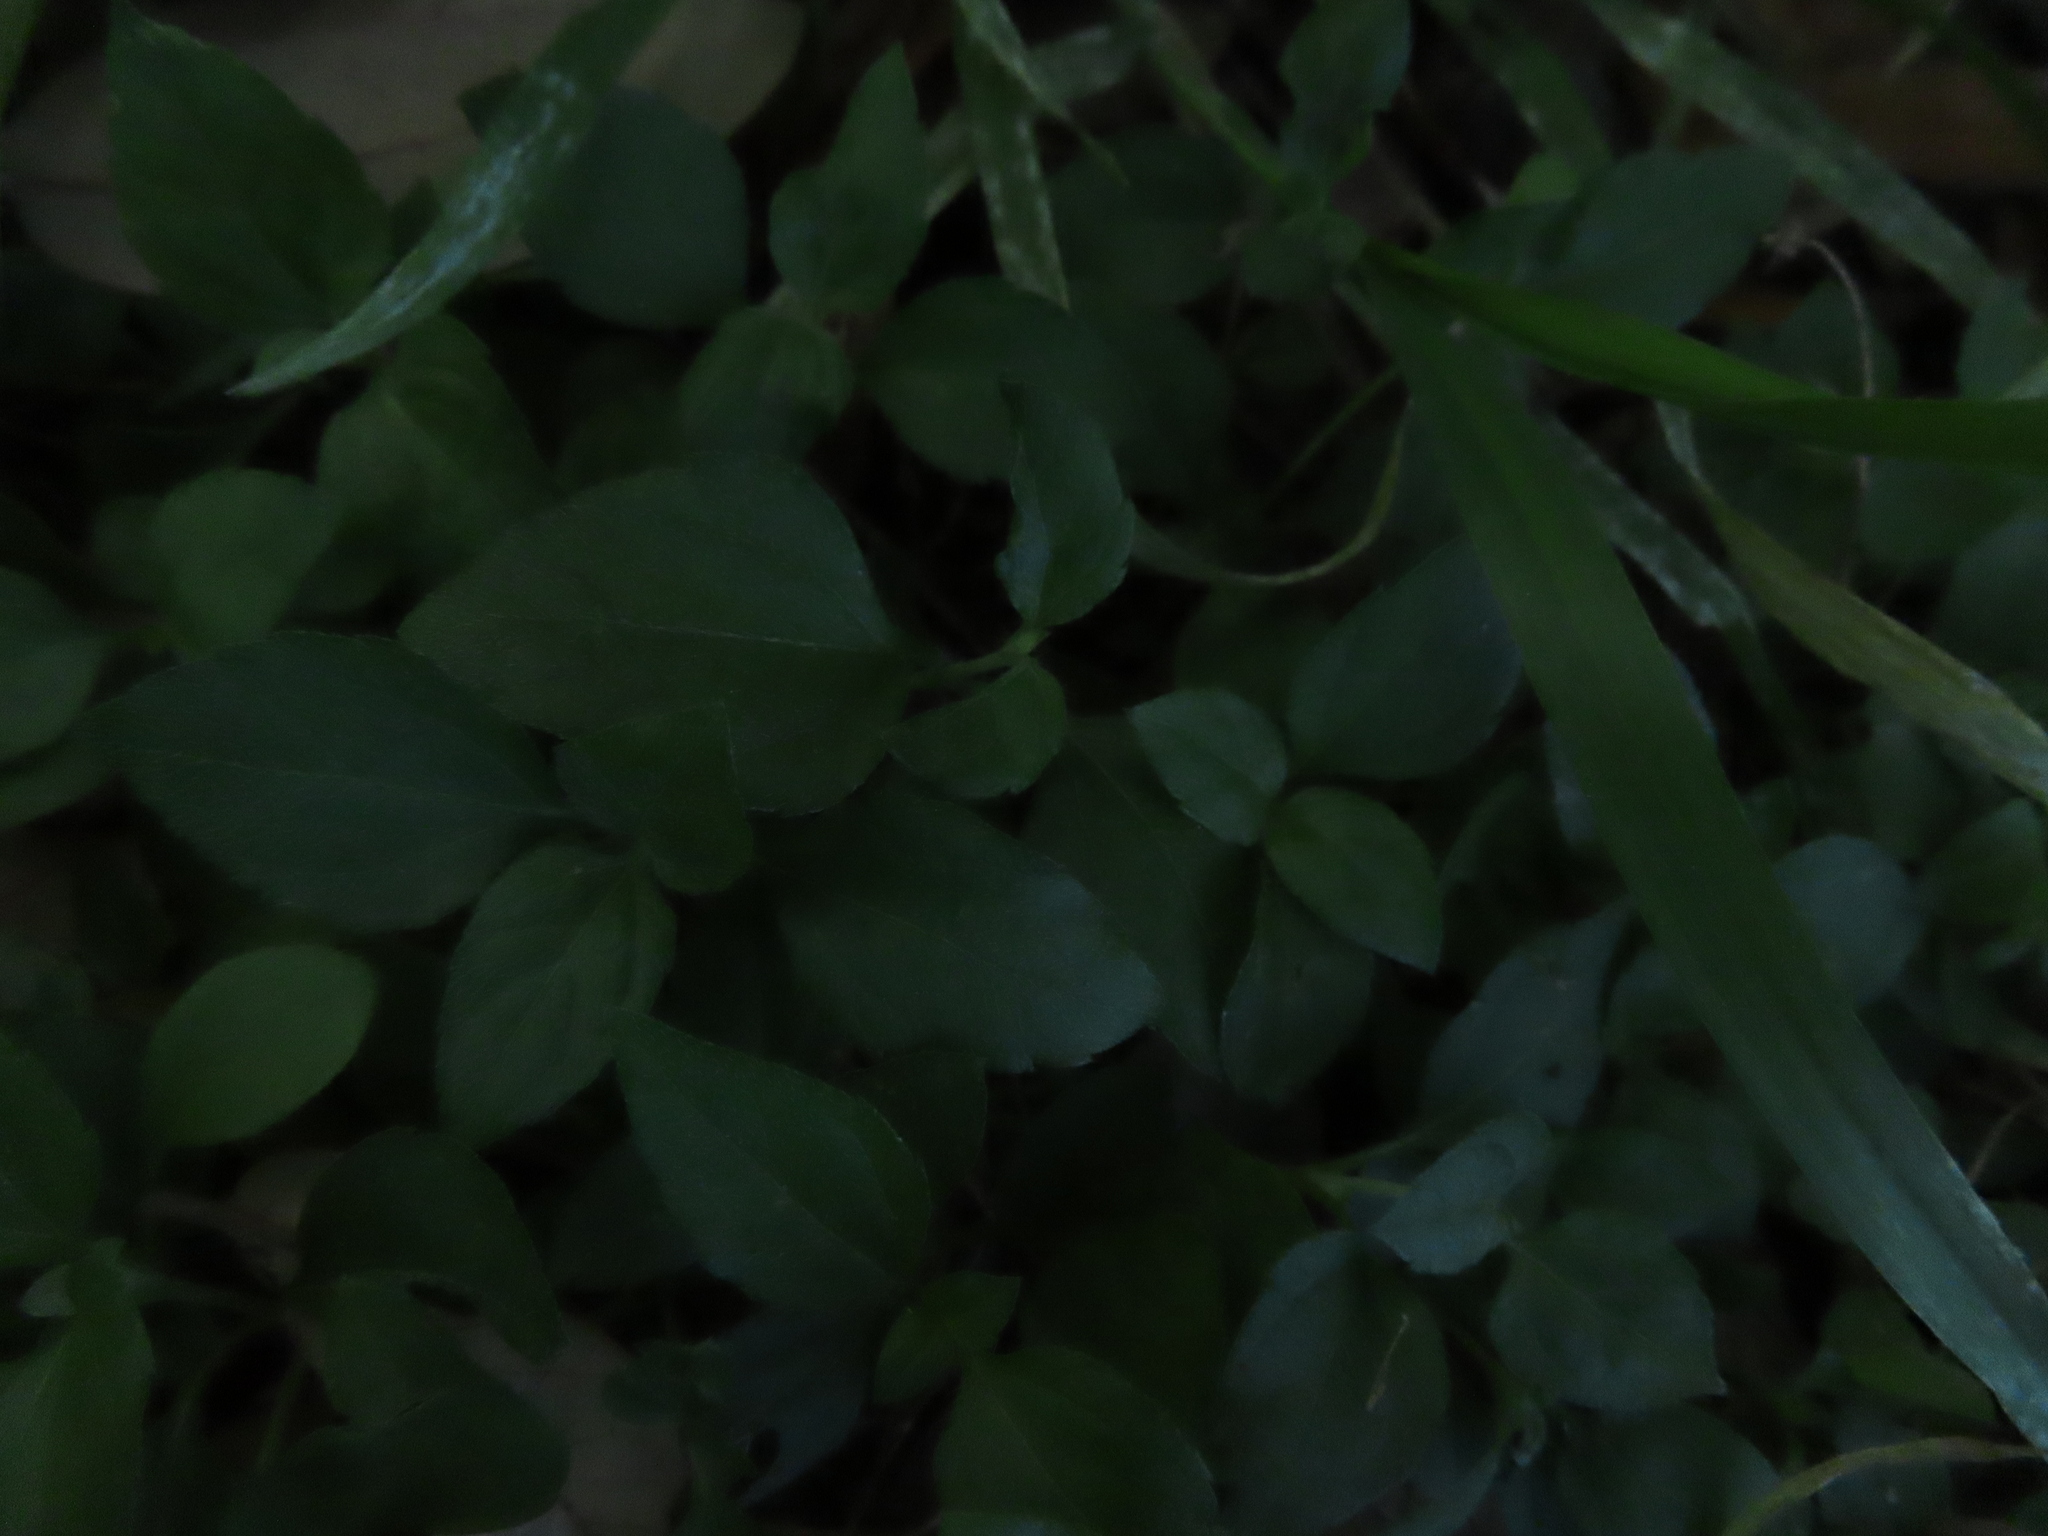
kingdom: Plantae
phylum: Tracheophyta
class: Magnoliopsida
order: Asterales
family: Asteraceae
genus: Calyptocarpus
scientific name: Calyptocarpus vialis
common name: Straggler daisy
